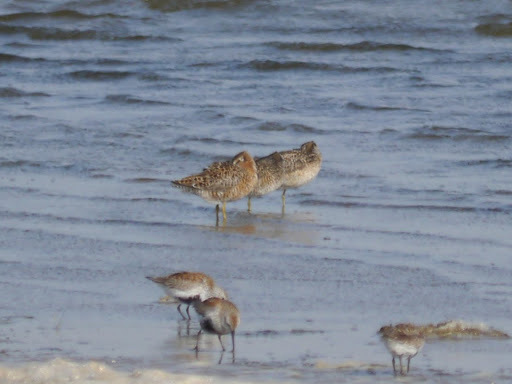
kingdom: Animalia
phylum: Chordata
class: Aves
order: Charadriiformes
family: Scolopacidae
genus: Limnodromus
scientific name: Limnodromus griseus
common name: Short-billed dowitcher
